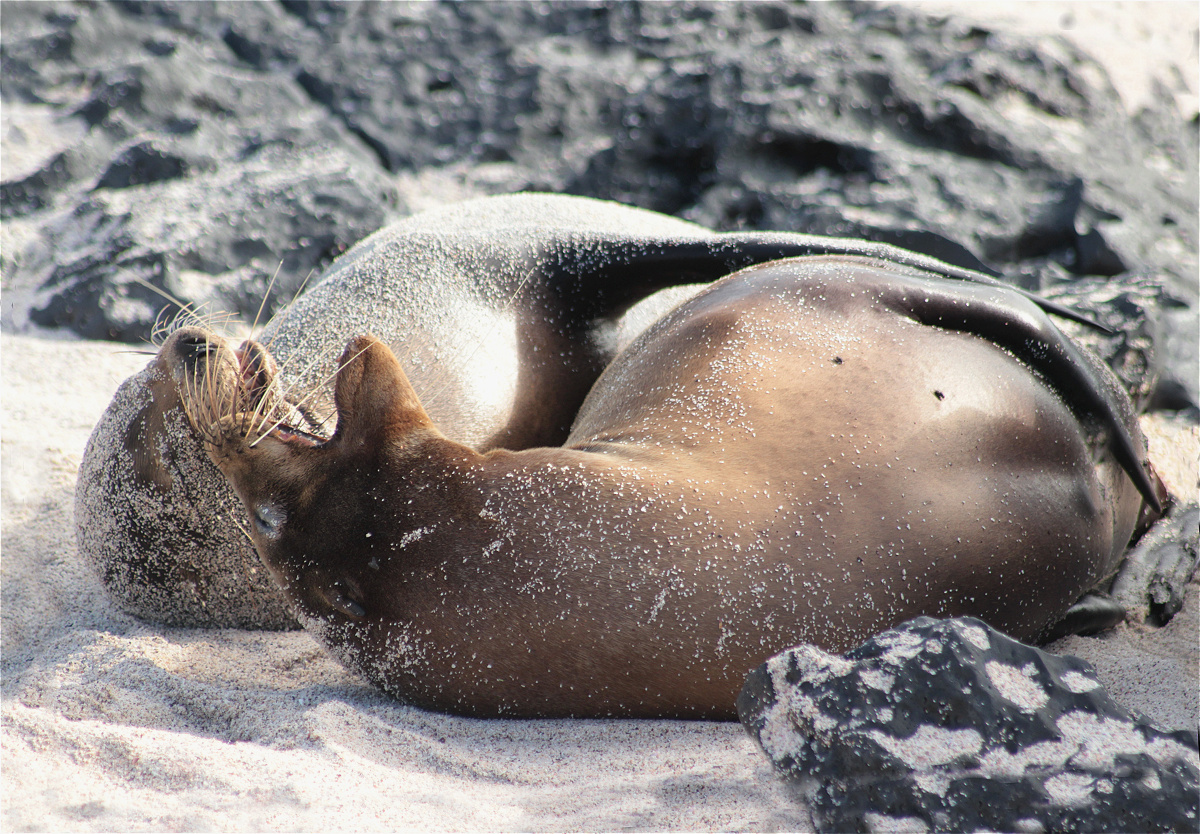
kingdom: Animalia
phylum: Chordata
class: Mammalia
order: Carnivora
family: Otariidae
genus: Zalophus
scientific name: Zalophus wollebaeki
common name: Galapagos sea lion
